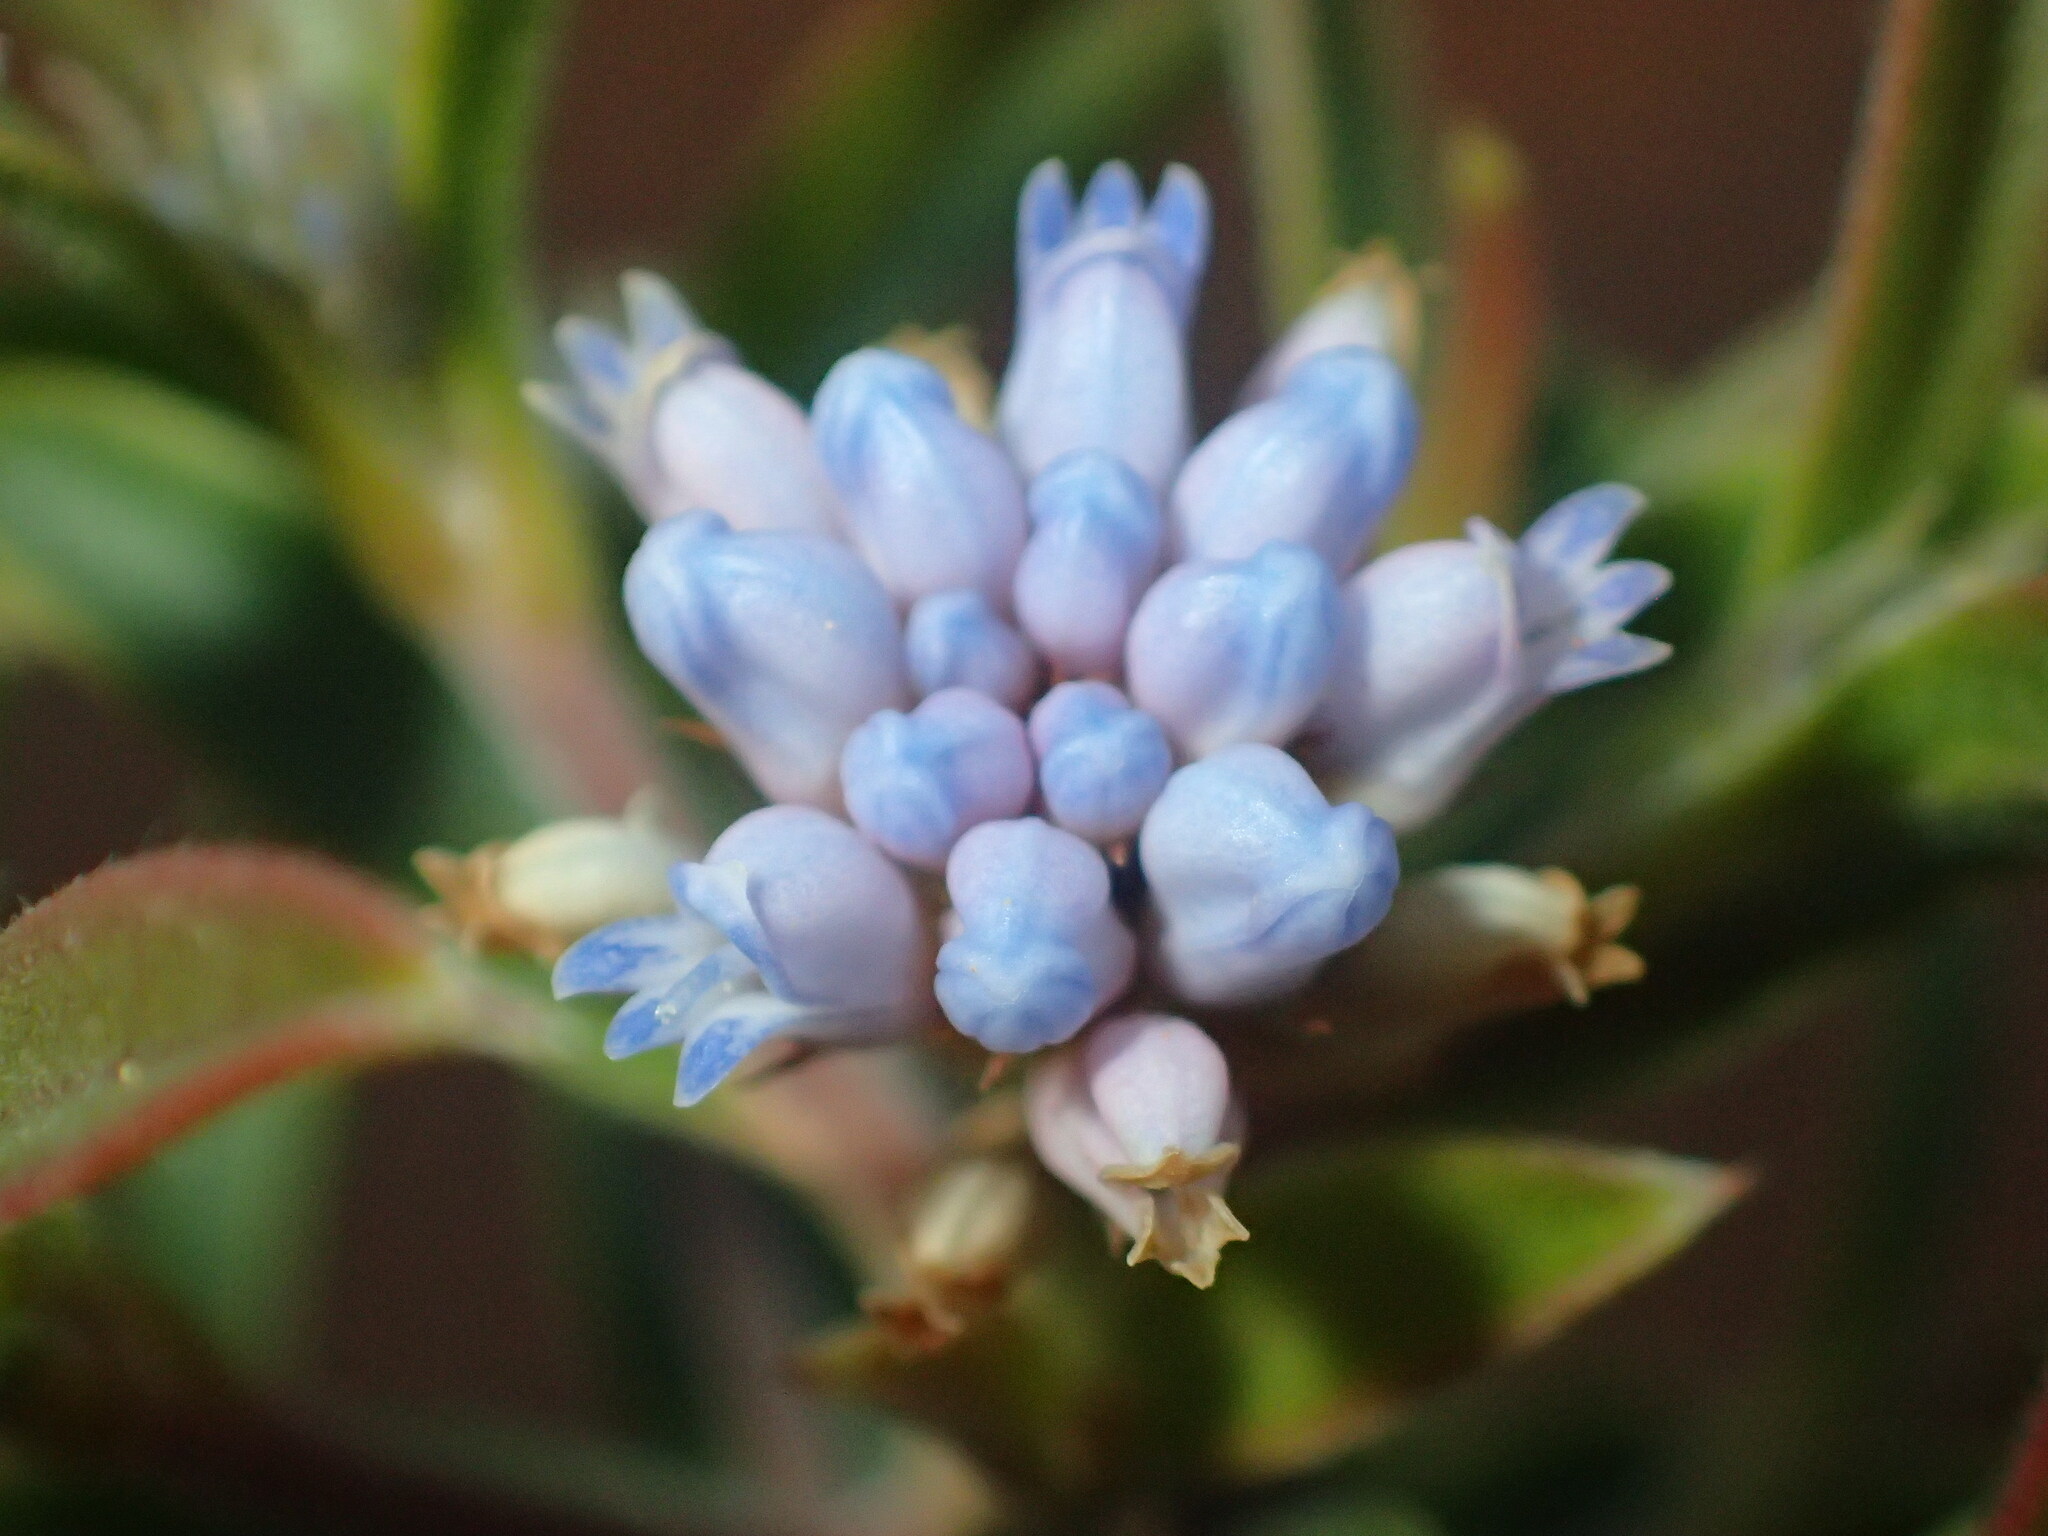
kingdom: Plantae
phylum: Tracheophyta
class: Magnoliopsida
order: Proteales
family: Proteaceae
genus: Conospermum
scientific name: Conospermum nervosum
